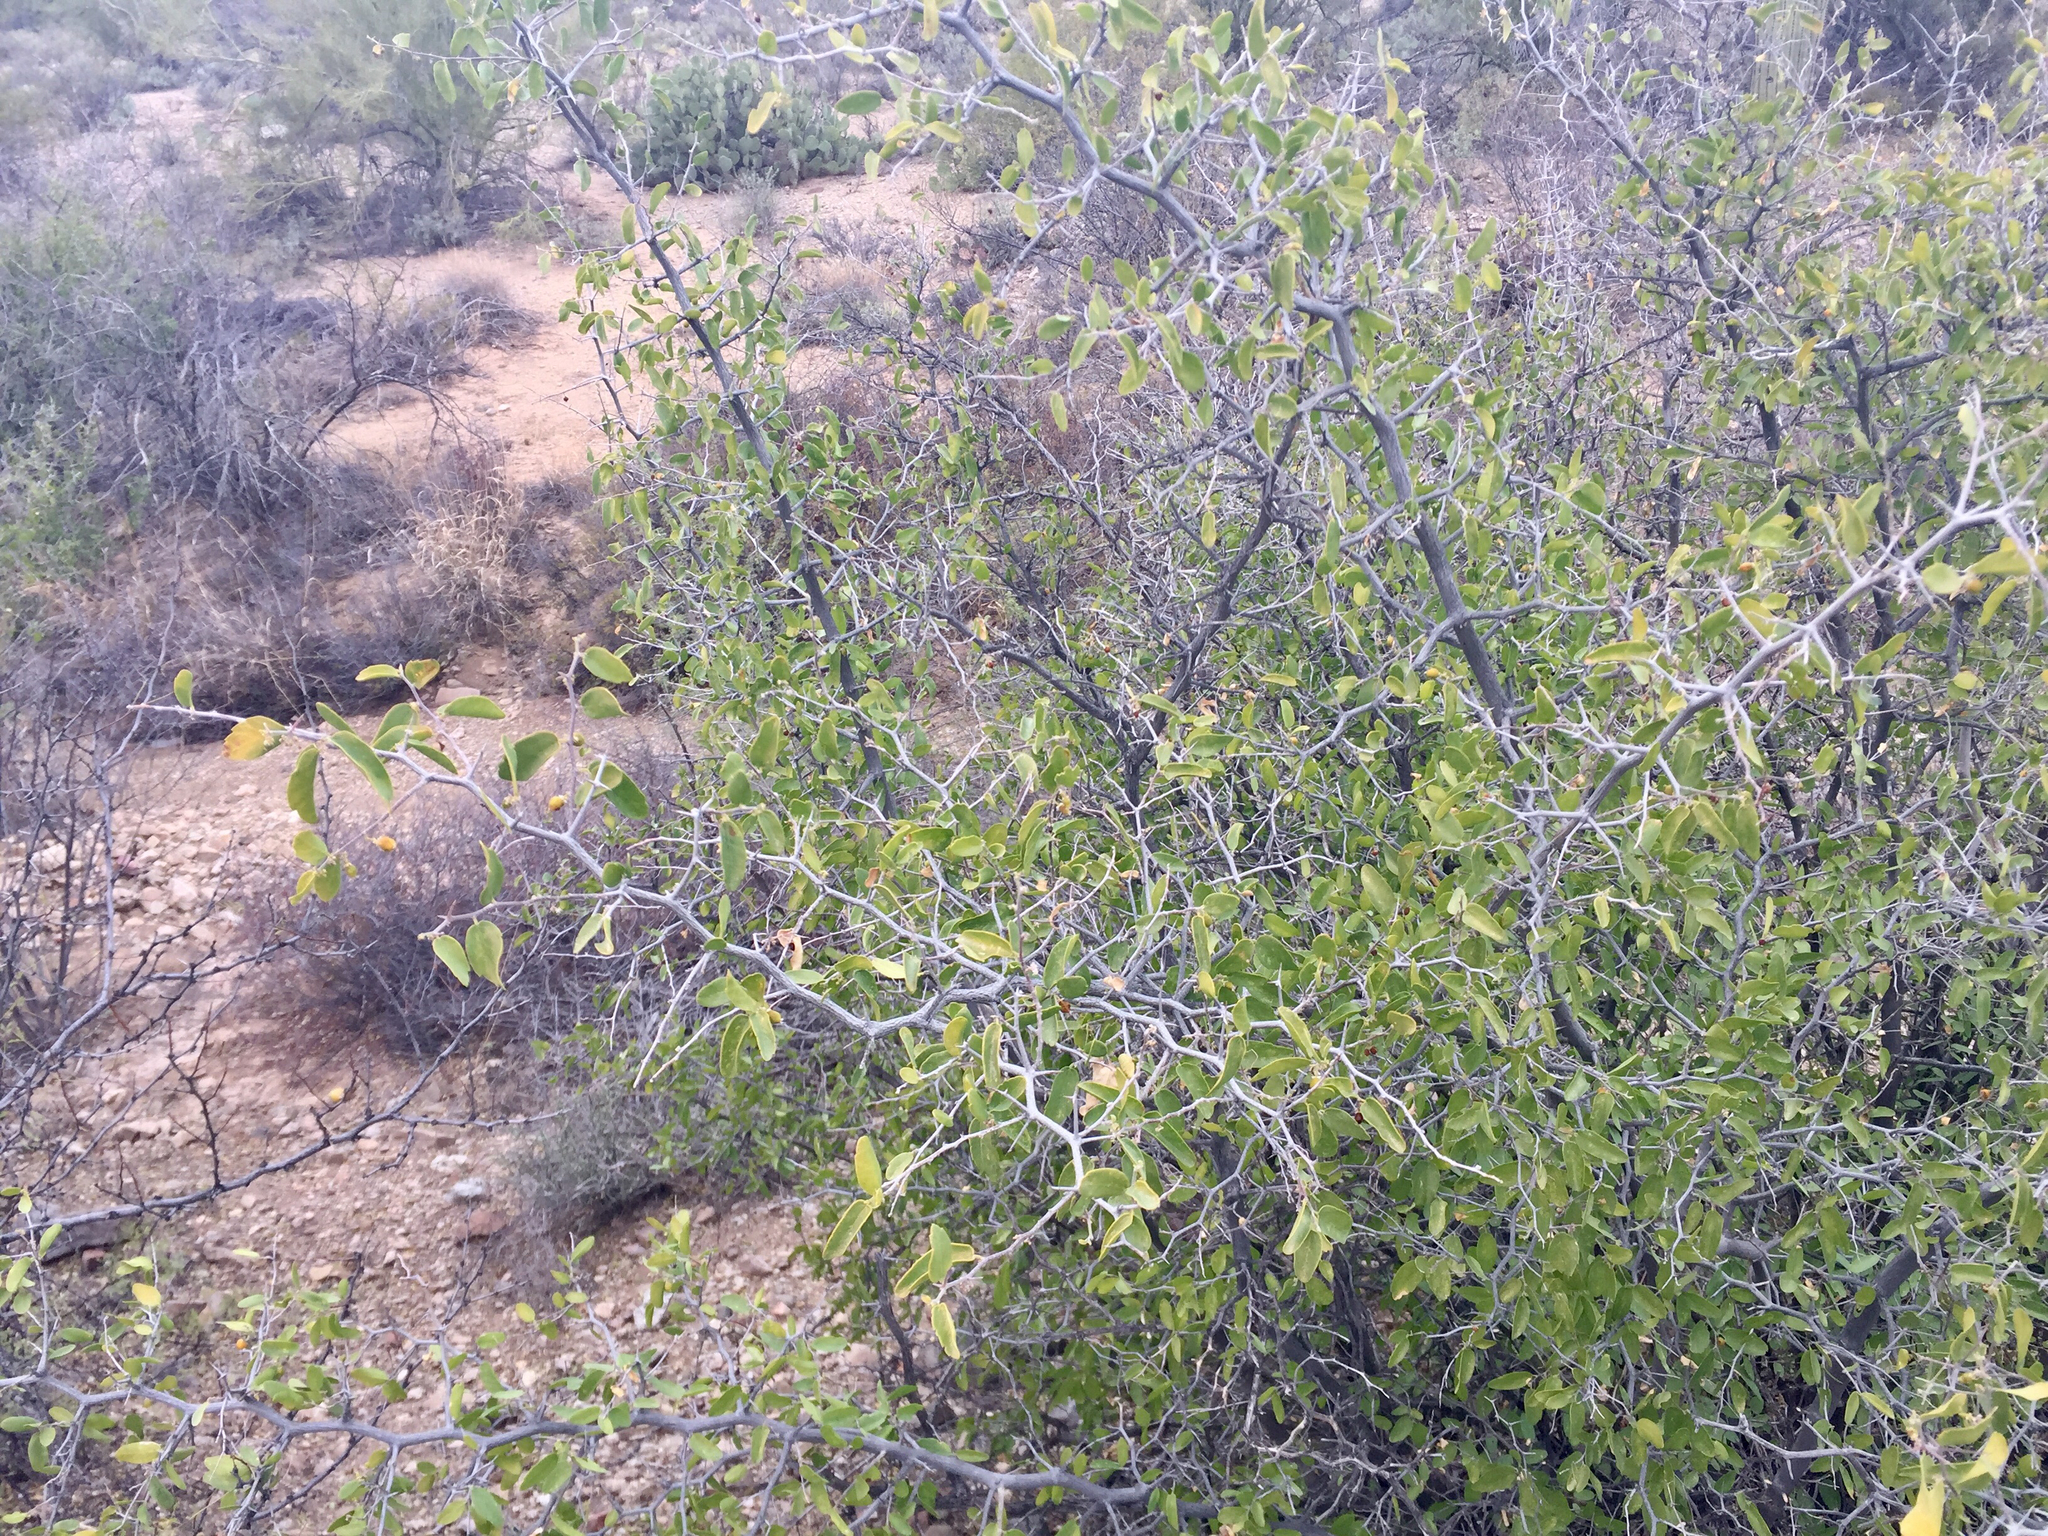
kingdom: Plantae
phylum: Tracheophyta
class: Magnoliopsida
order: Rosales
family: Cannabaceae
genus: Celtis
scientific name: Celtis pallida
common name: Desert hackberry
